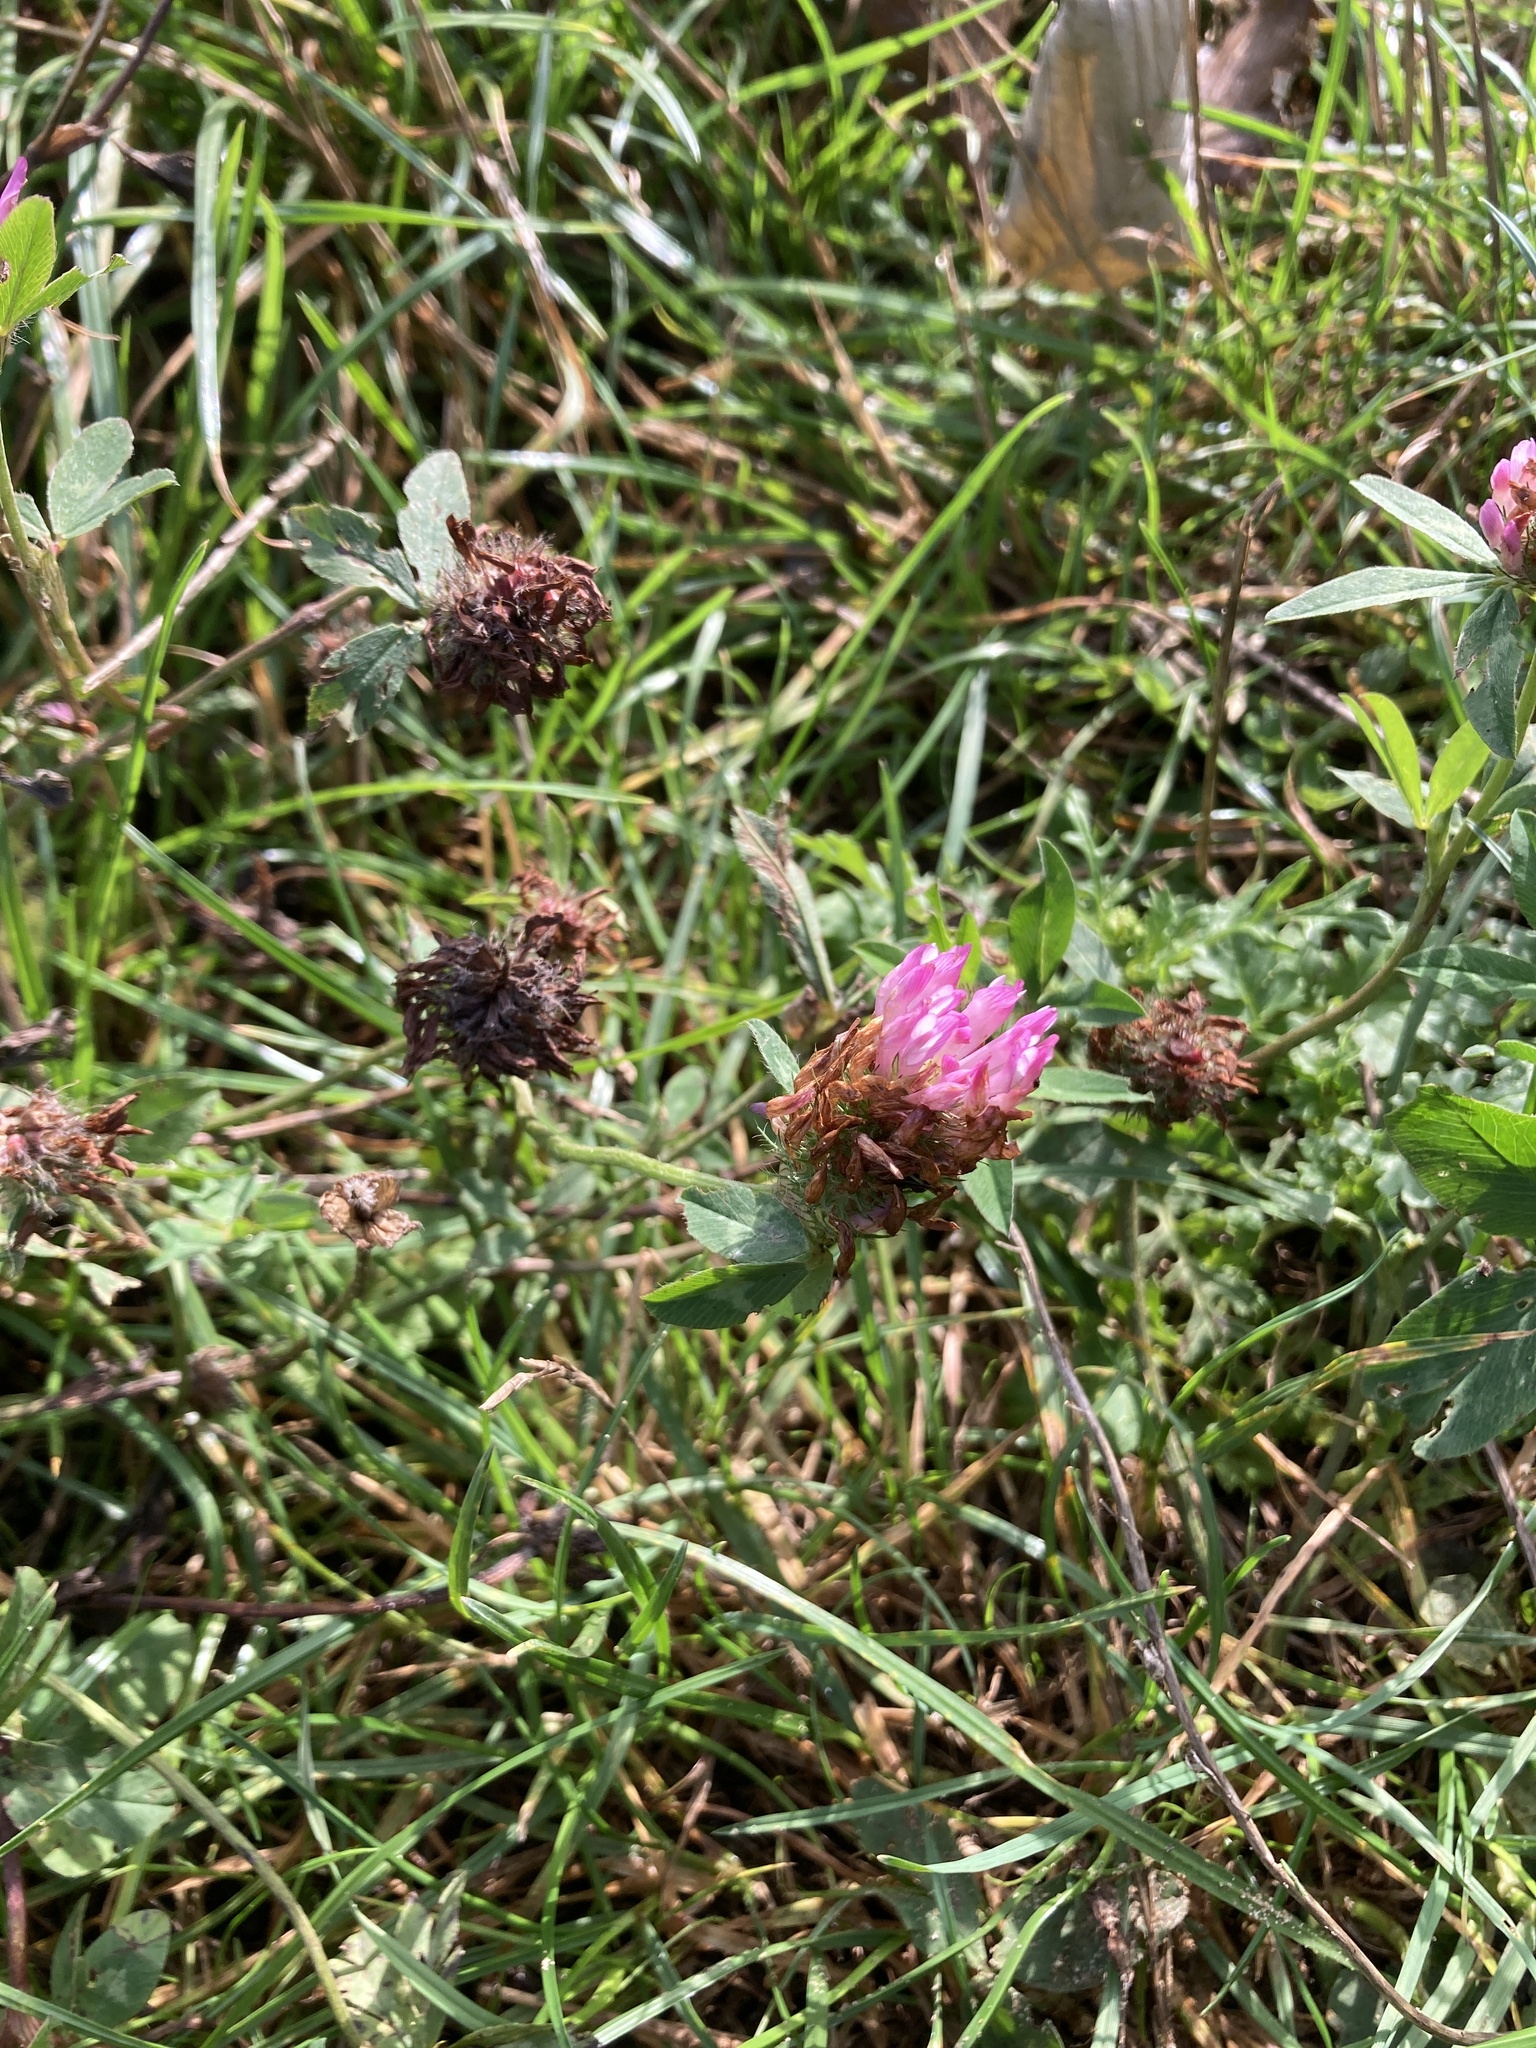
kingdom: Plantae
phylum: Tracheophyta
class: Magnoliopsida
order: Fabales
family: Fabaceae
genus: Trifolium
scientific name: Trifolium pratense
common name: Red clover
